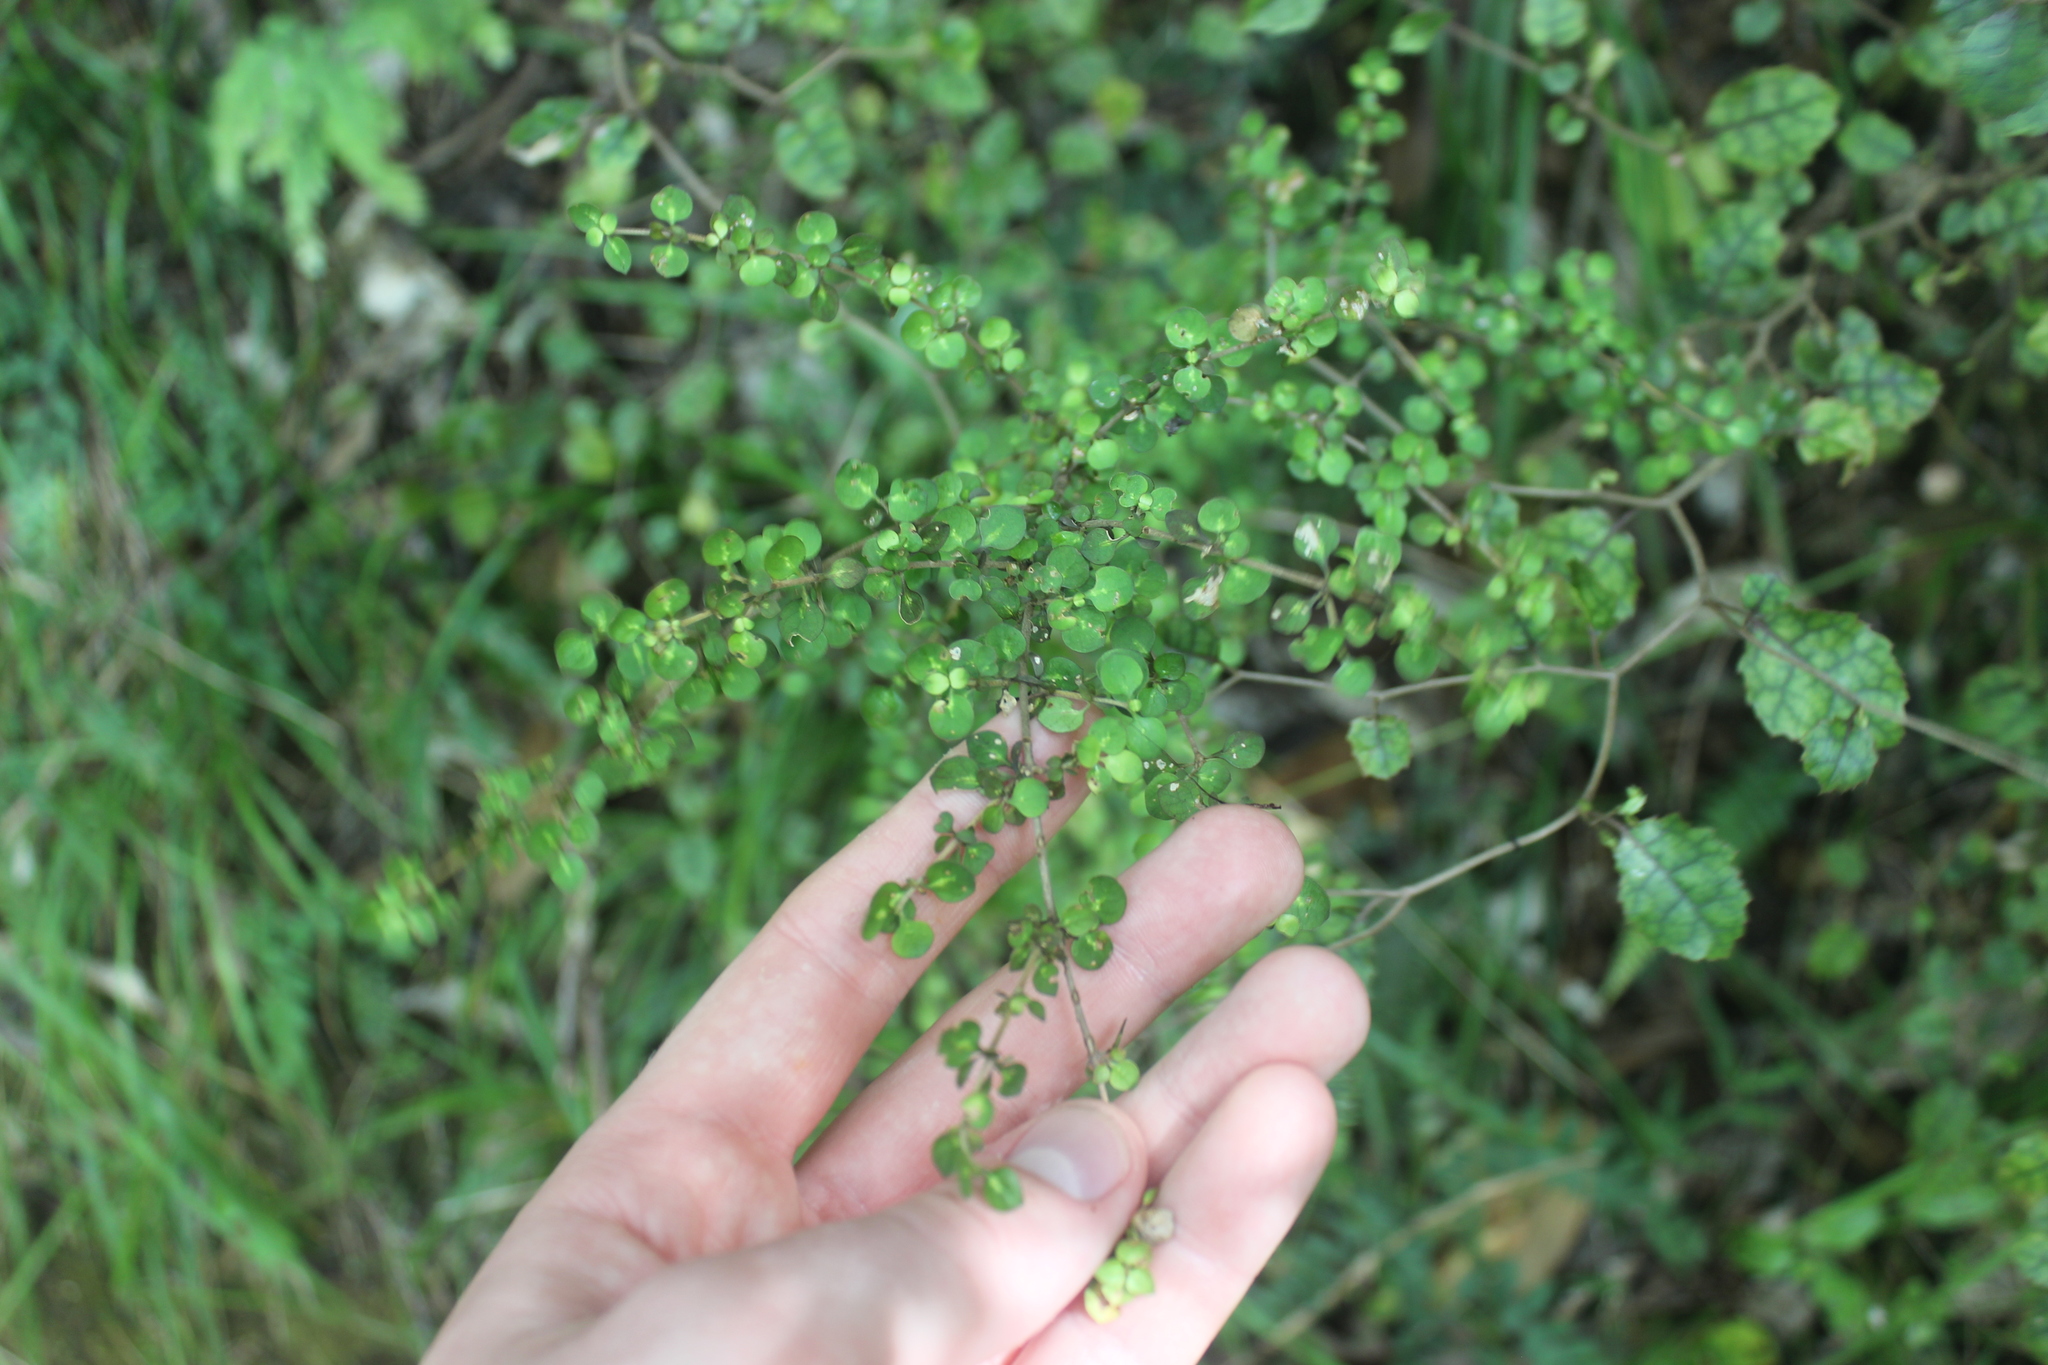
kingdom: Plantae
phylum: Tracheophyta
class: Magnoliopsida
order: Gentianales
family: Rubiaceae
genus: Coprosma
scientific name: Coprosma rhamnoides
